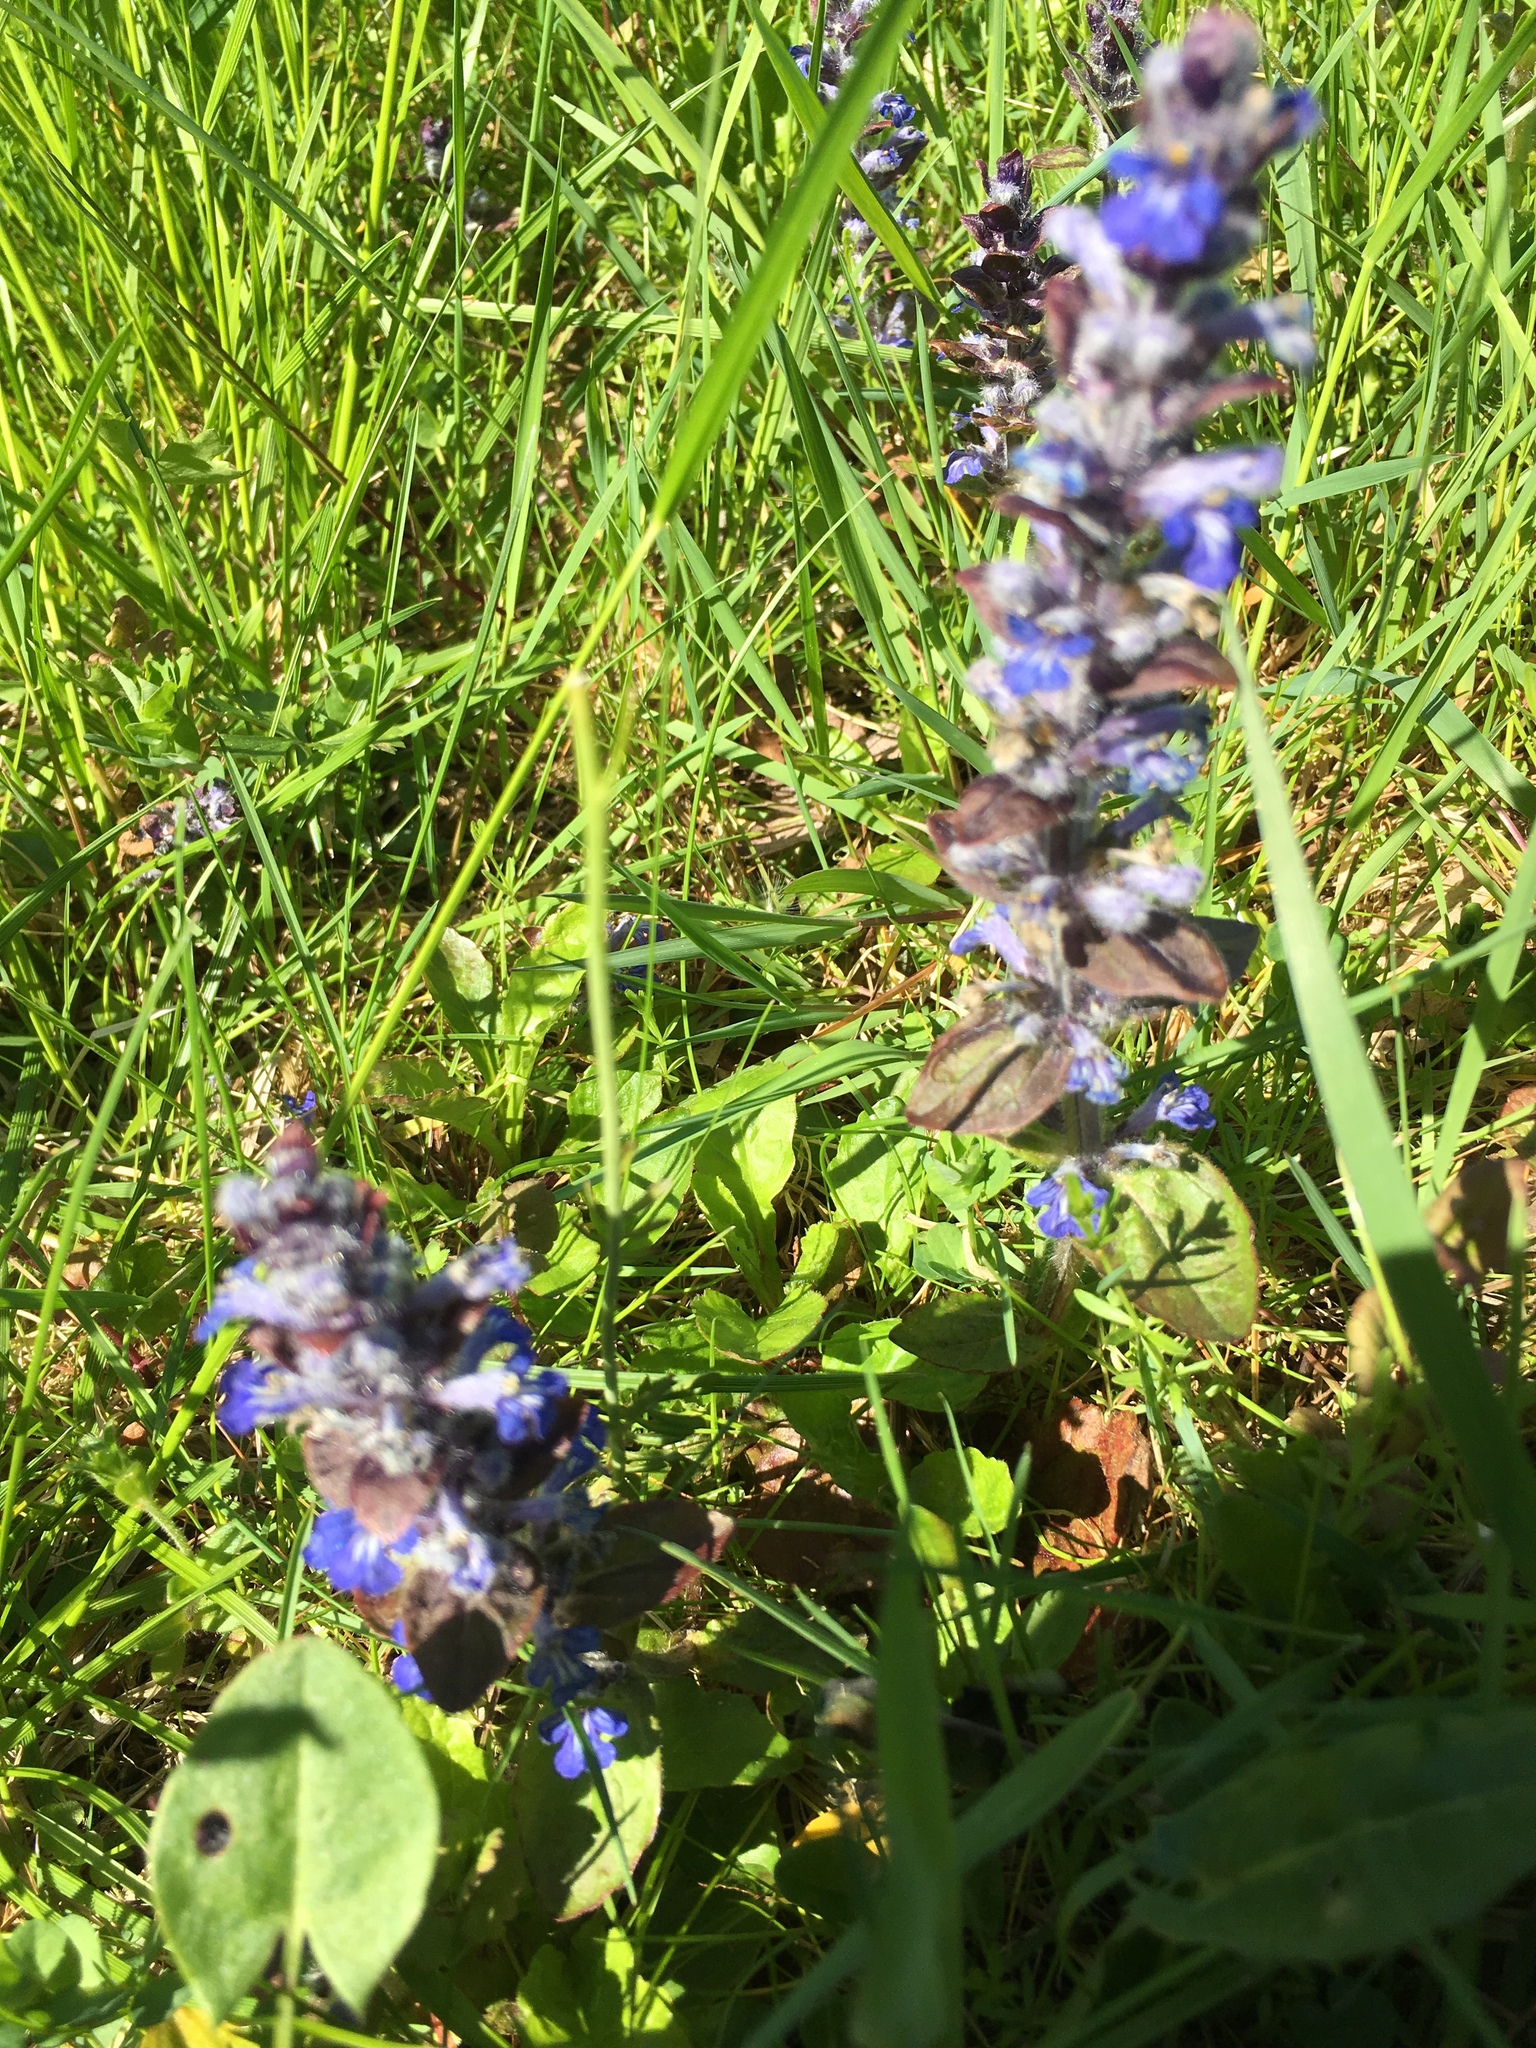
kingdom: Plantae
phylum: Tracheophyta
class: Magnoliopsida
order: Lamiales
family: Lamiaceae
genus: Ajuga
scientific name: Ajuga reptans
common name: Bugle
